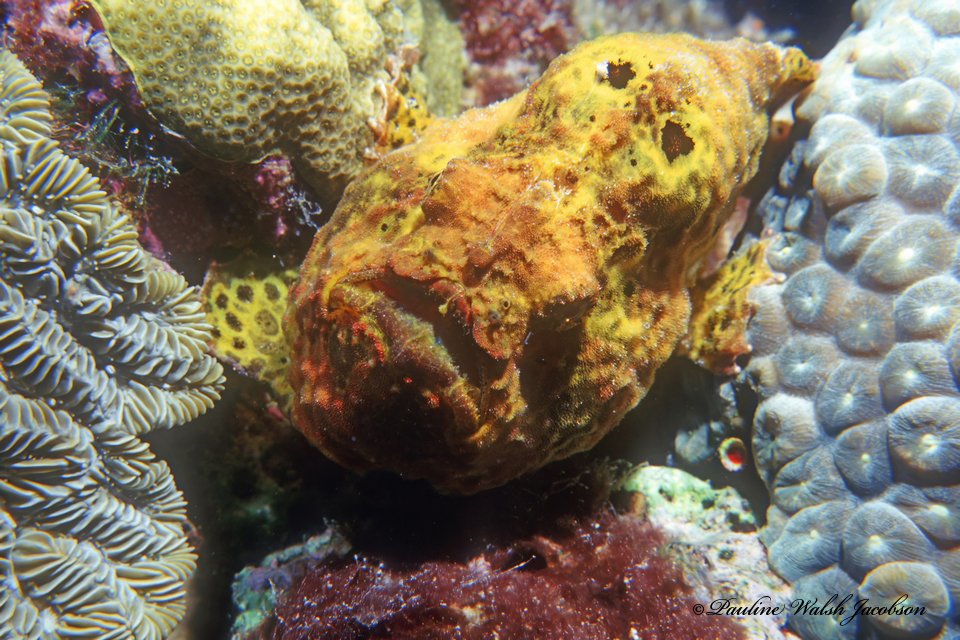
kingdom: Animalia
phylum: Chordata
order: Lophiiformes
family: Antennariidae
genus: Antennarius
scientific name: Antennarius multiocellatus
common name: Longlure frogfish
